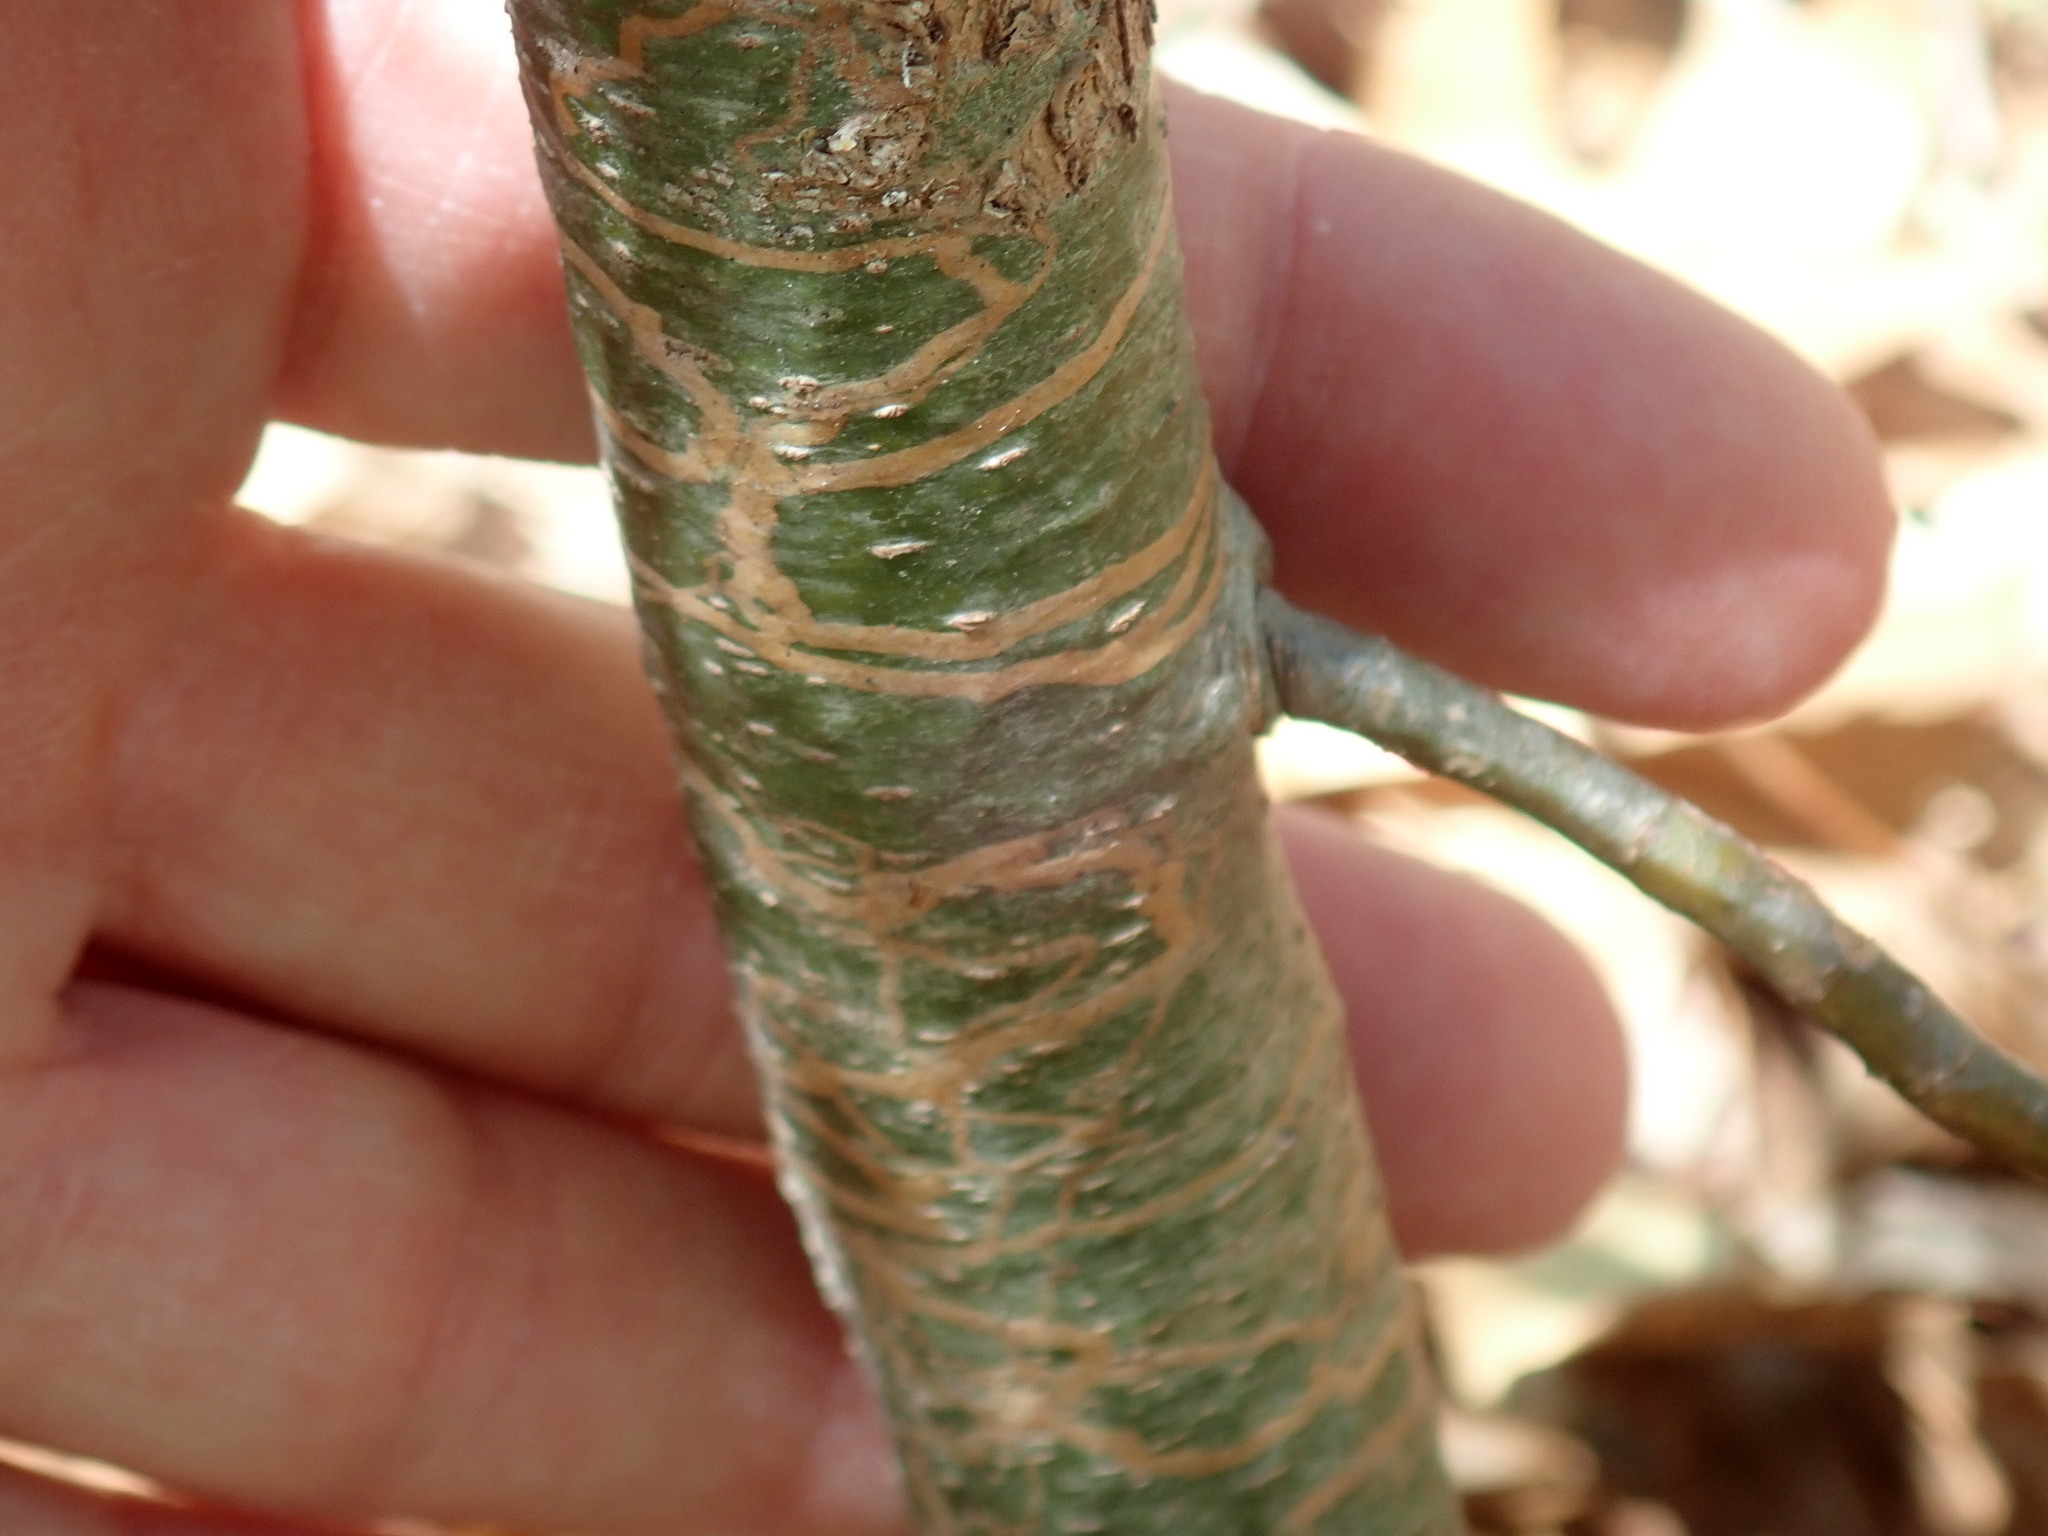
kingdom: Animalia
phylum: Arthropoda
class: Insecta
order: Lepidoptera
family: Gracillariidae
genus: Marmara
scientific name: Marmara fasciella
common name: White pine barkminer moth
